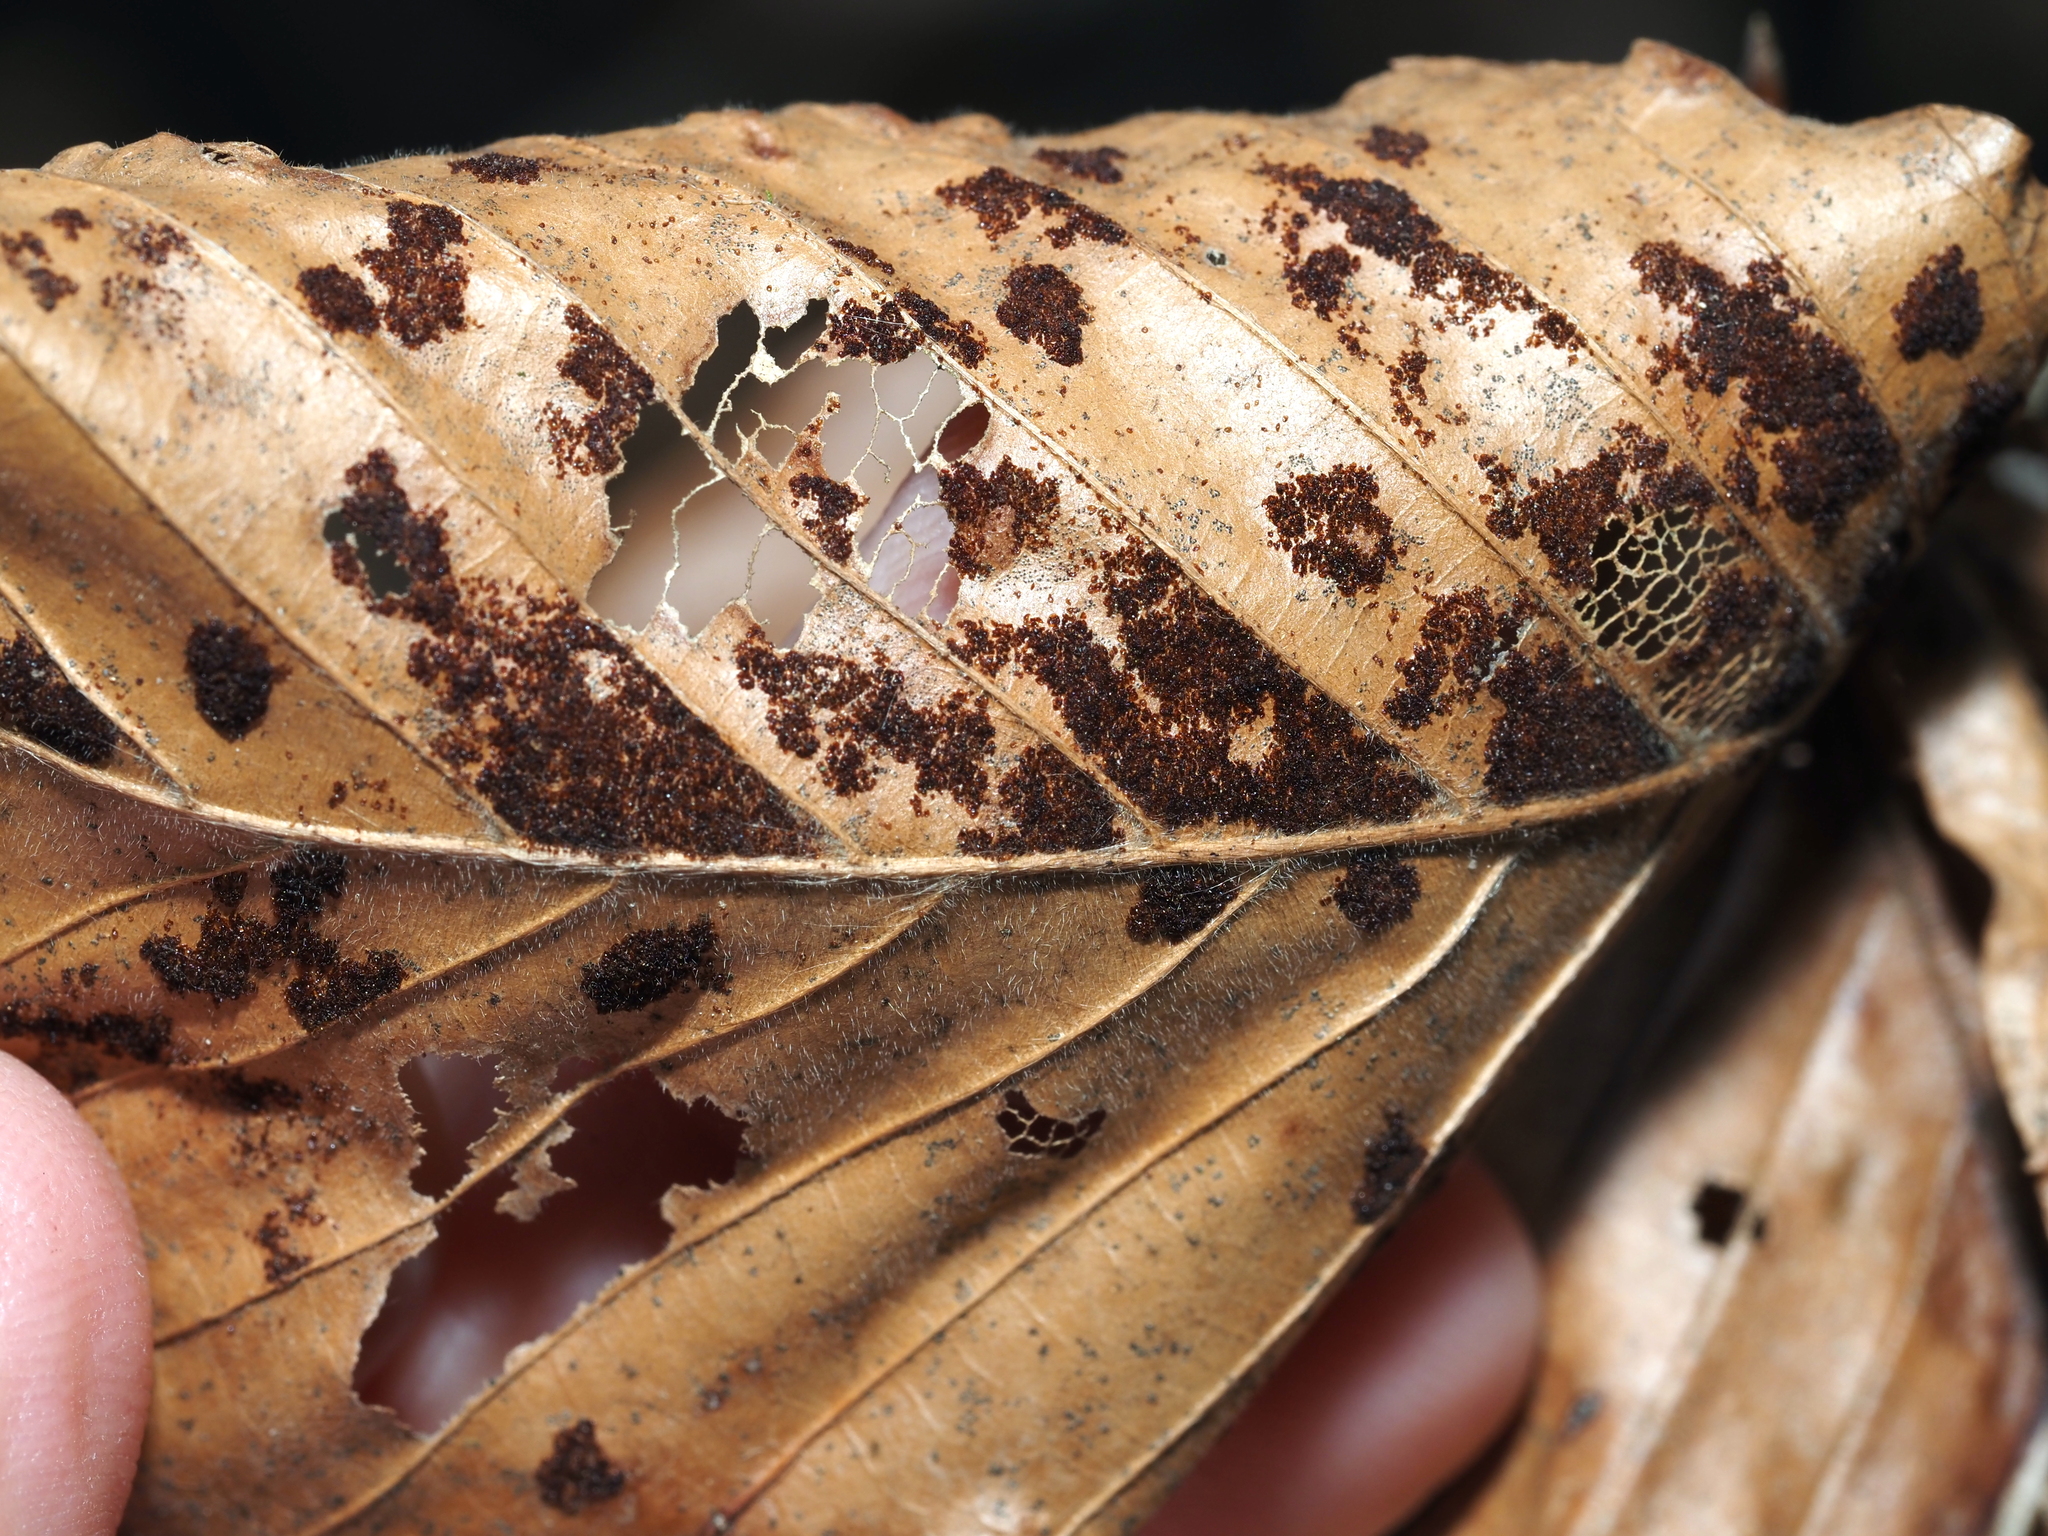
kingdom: Animalia
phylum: Arthropoda
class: Arachnida
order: Trombidiformes
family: Eriophyidae
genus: Acalitus
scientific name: Acalitus
